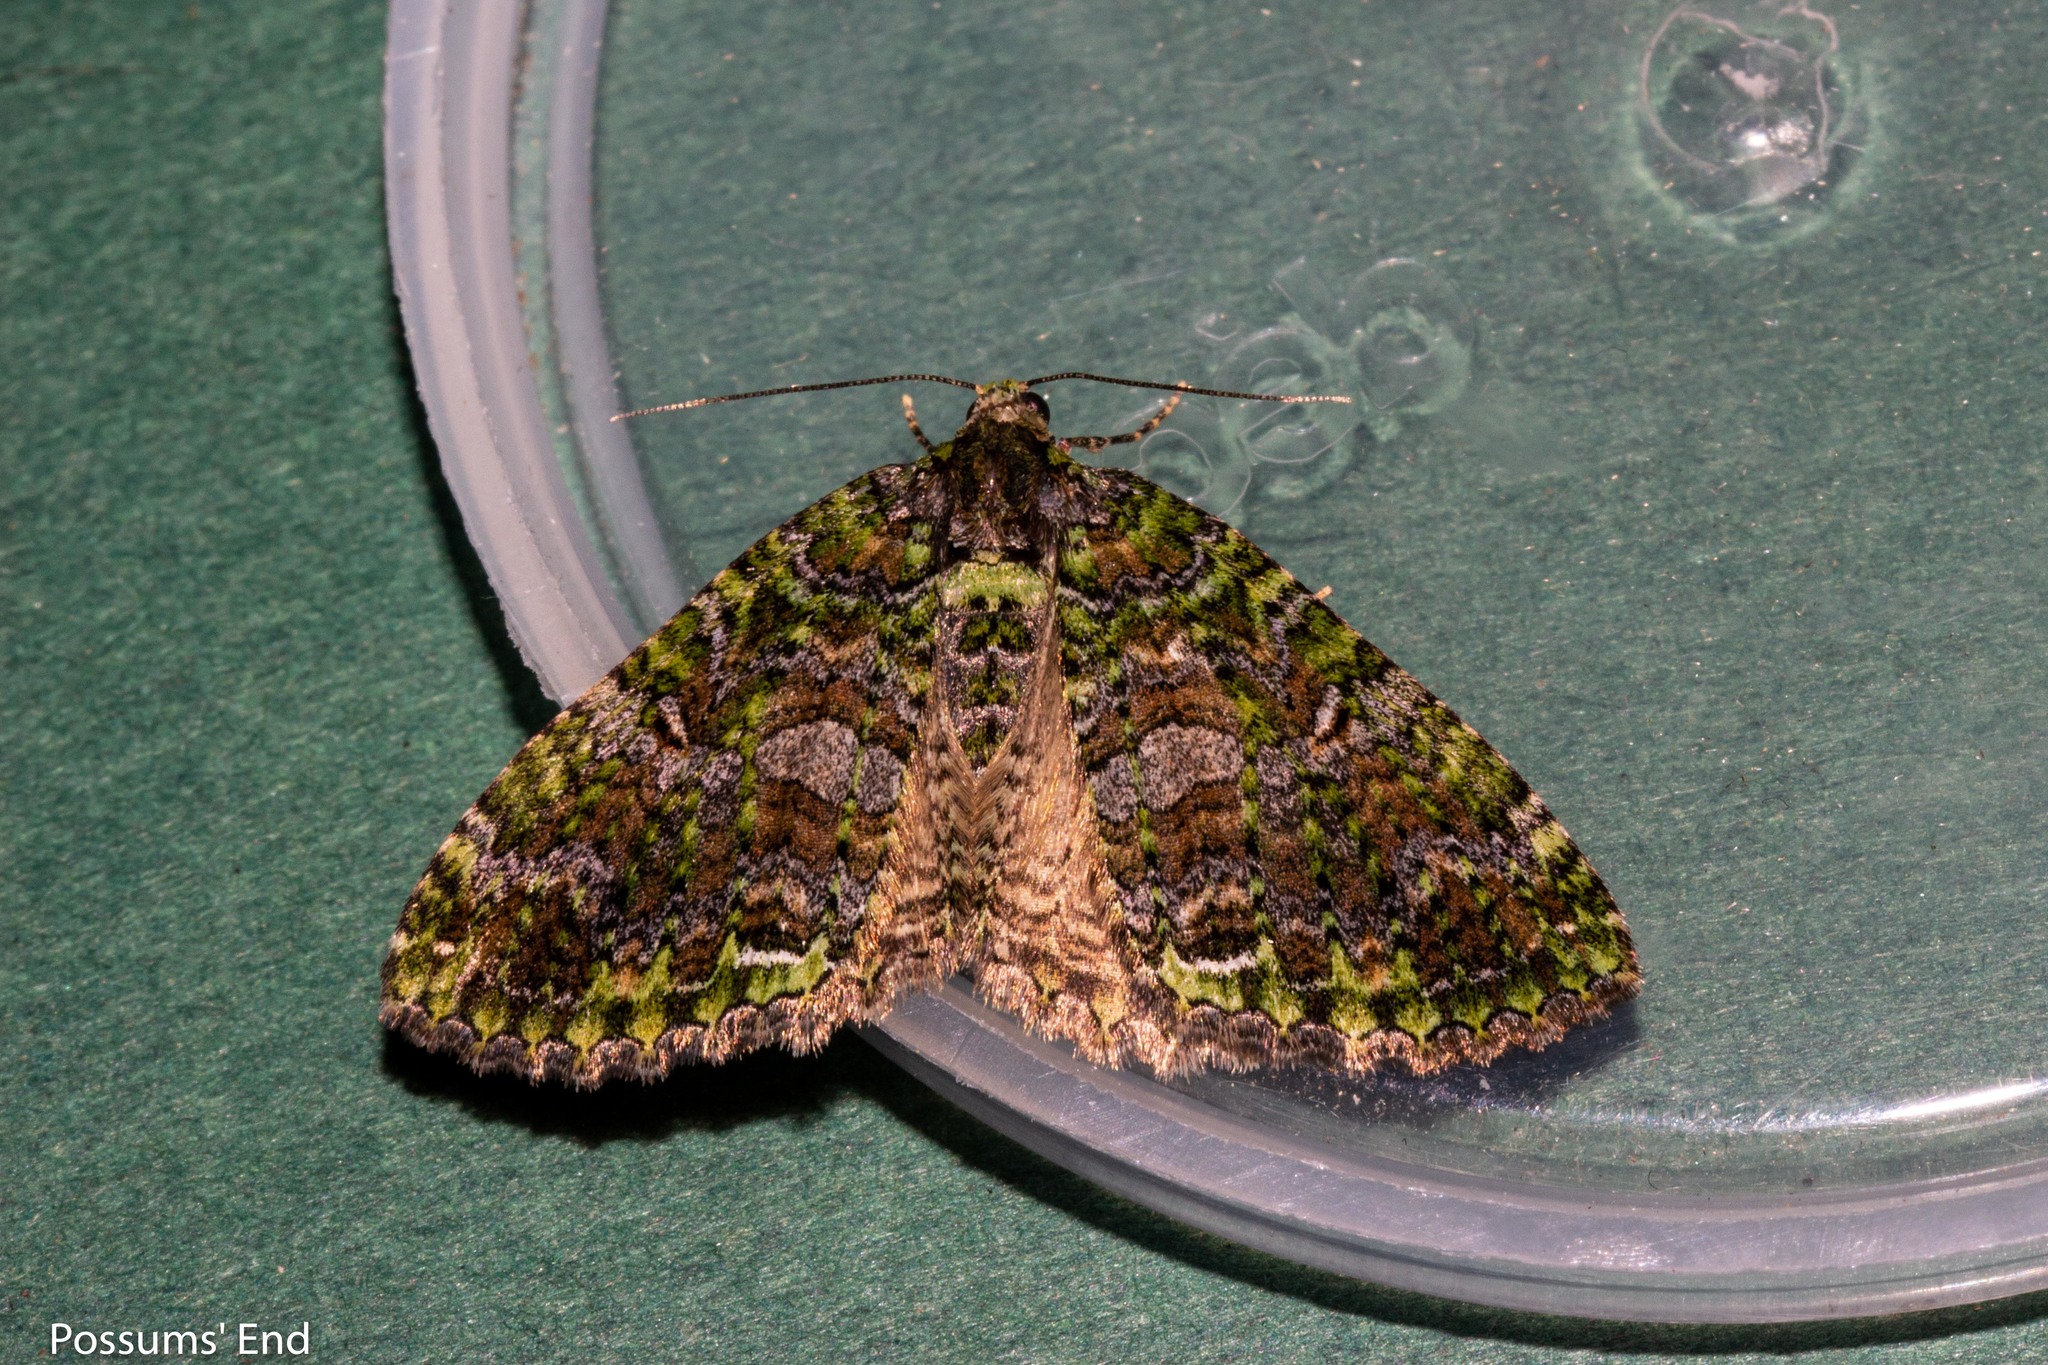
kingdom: Animalia
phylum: Arthropoda
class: Insecta
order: Lepidoptera
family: Geometridae
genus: Austrocidaria
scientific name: Austrocidaria similata
